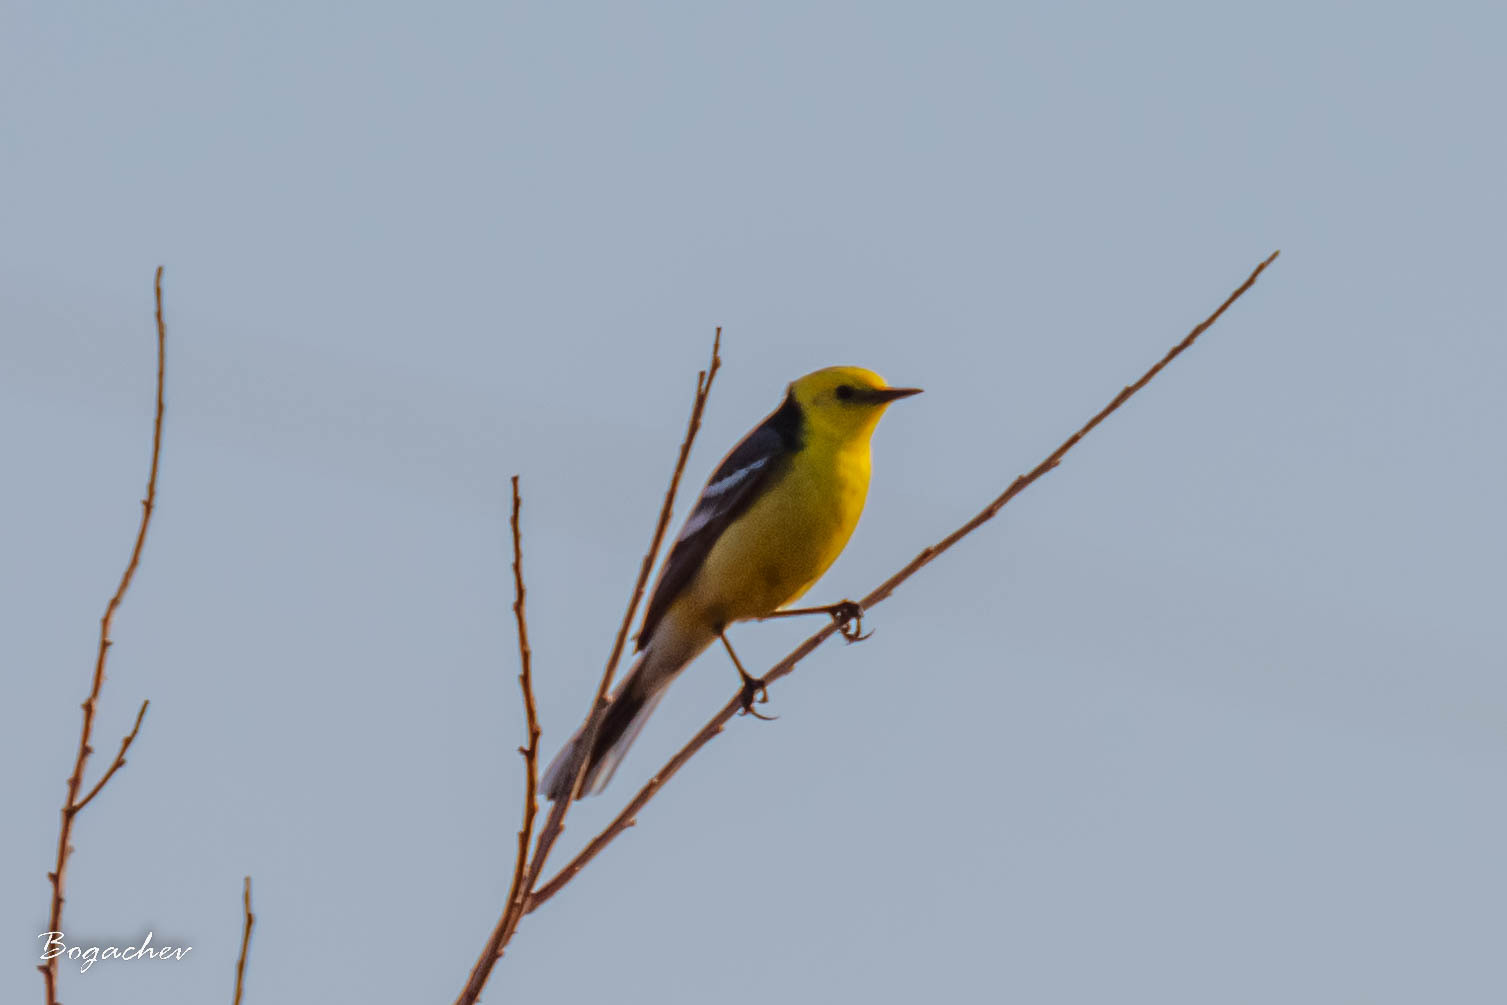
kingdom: Animalia
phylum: Chordata
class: Aves
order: Passeriformes
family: Motacillidae
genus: Motacilla
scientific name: Motacilla citreola
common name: Citrine wagtail
